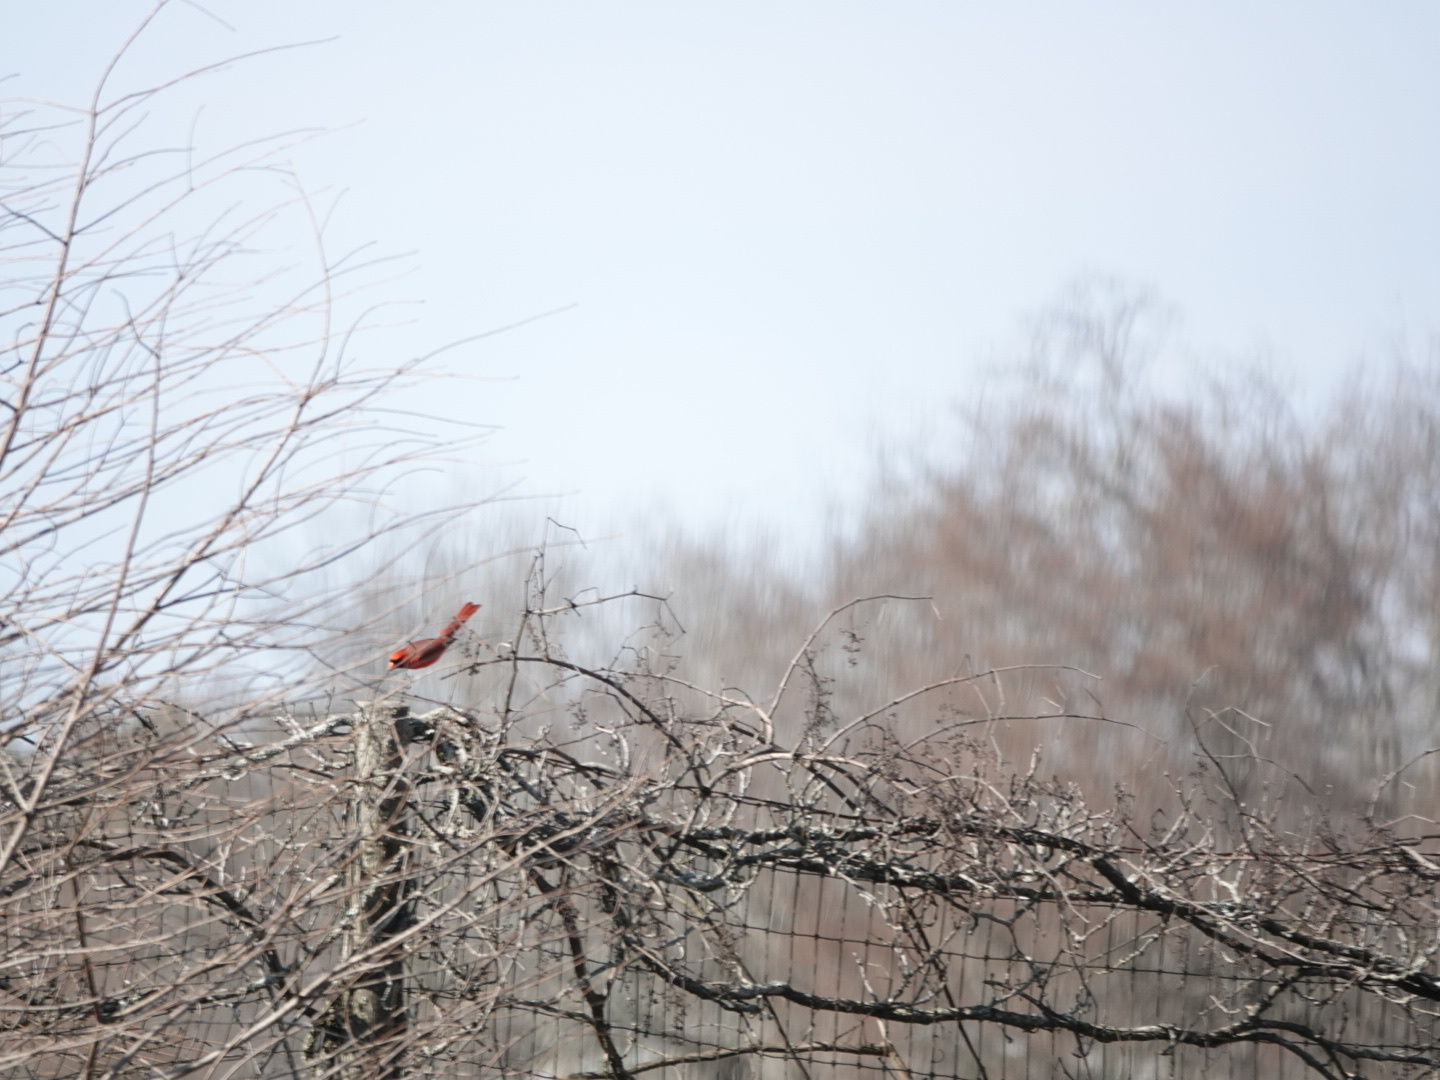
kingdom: Animalia
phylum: Chordata
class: Aves
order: Passeriformes
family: Cardinalidae
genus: Cardinalis
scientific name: Cardinalis cardinalis
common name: Northern cardinal
